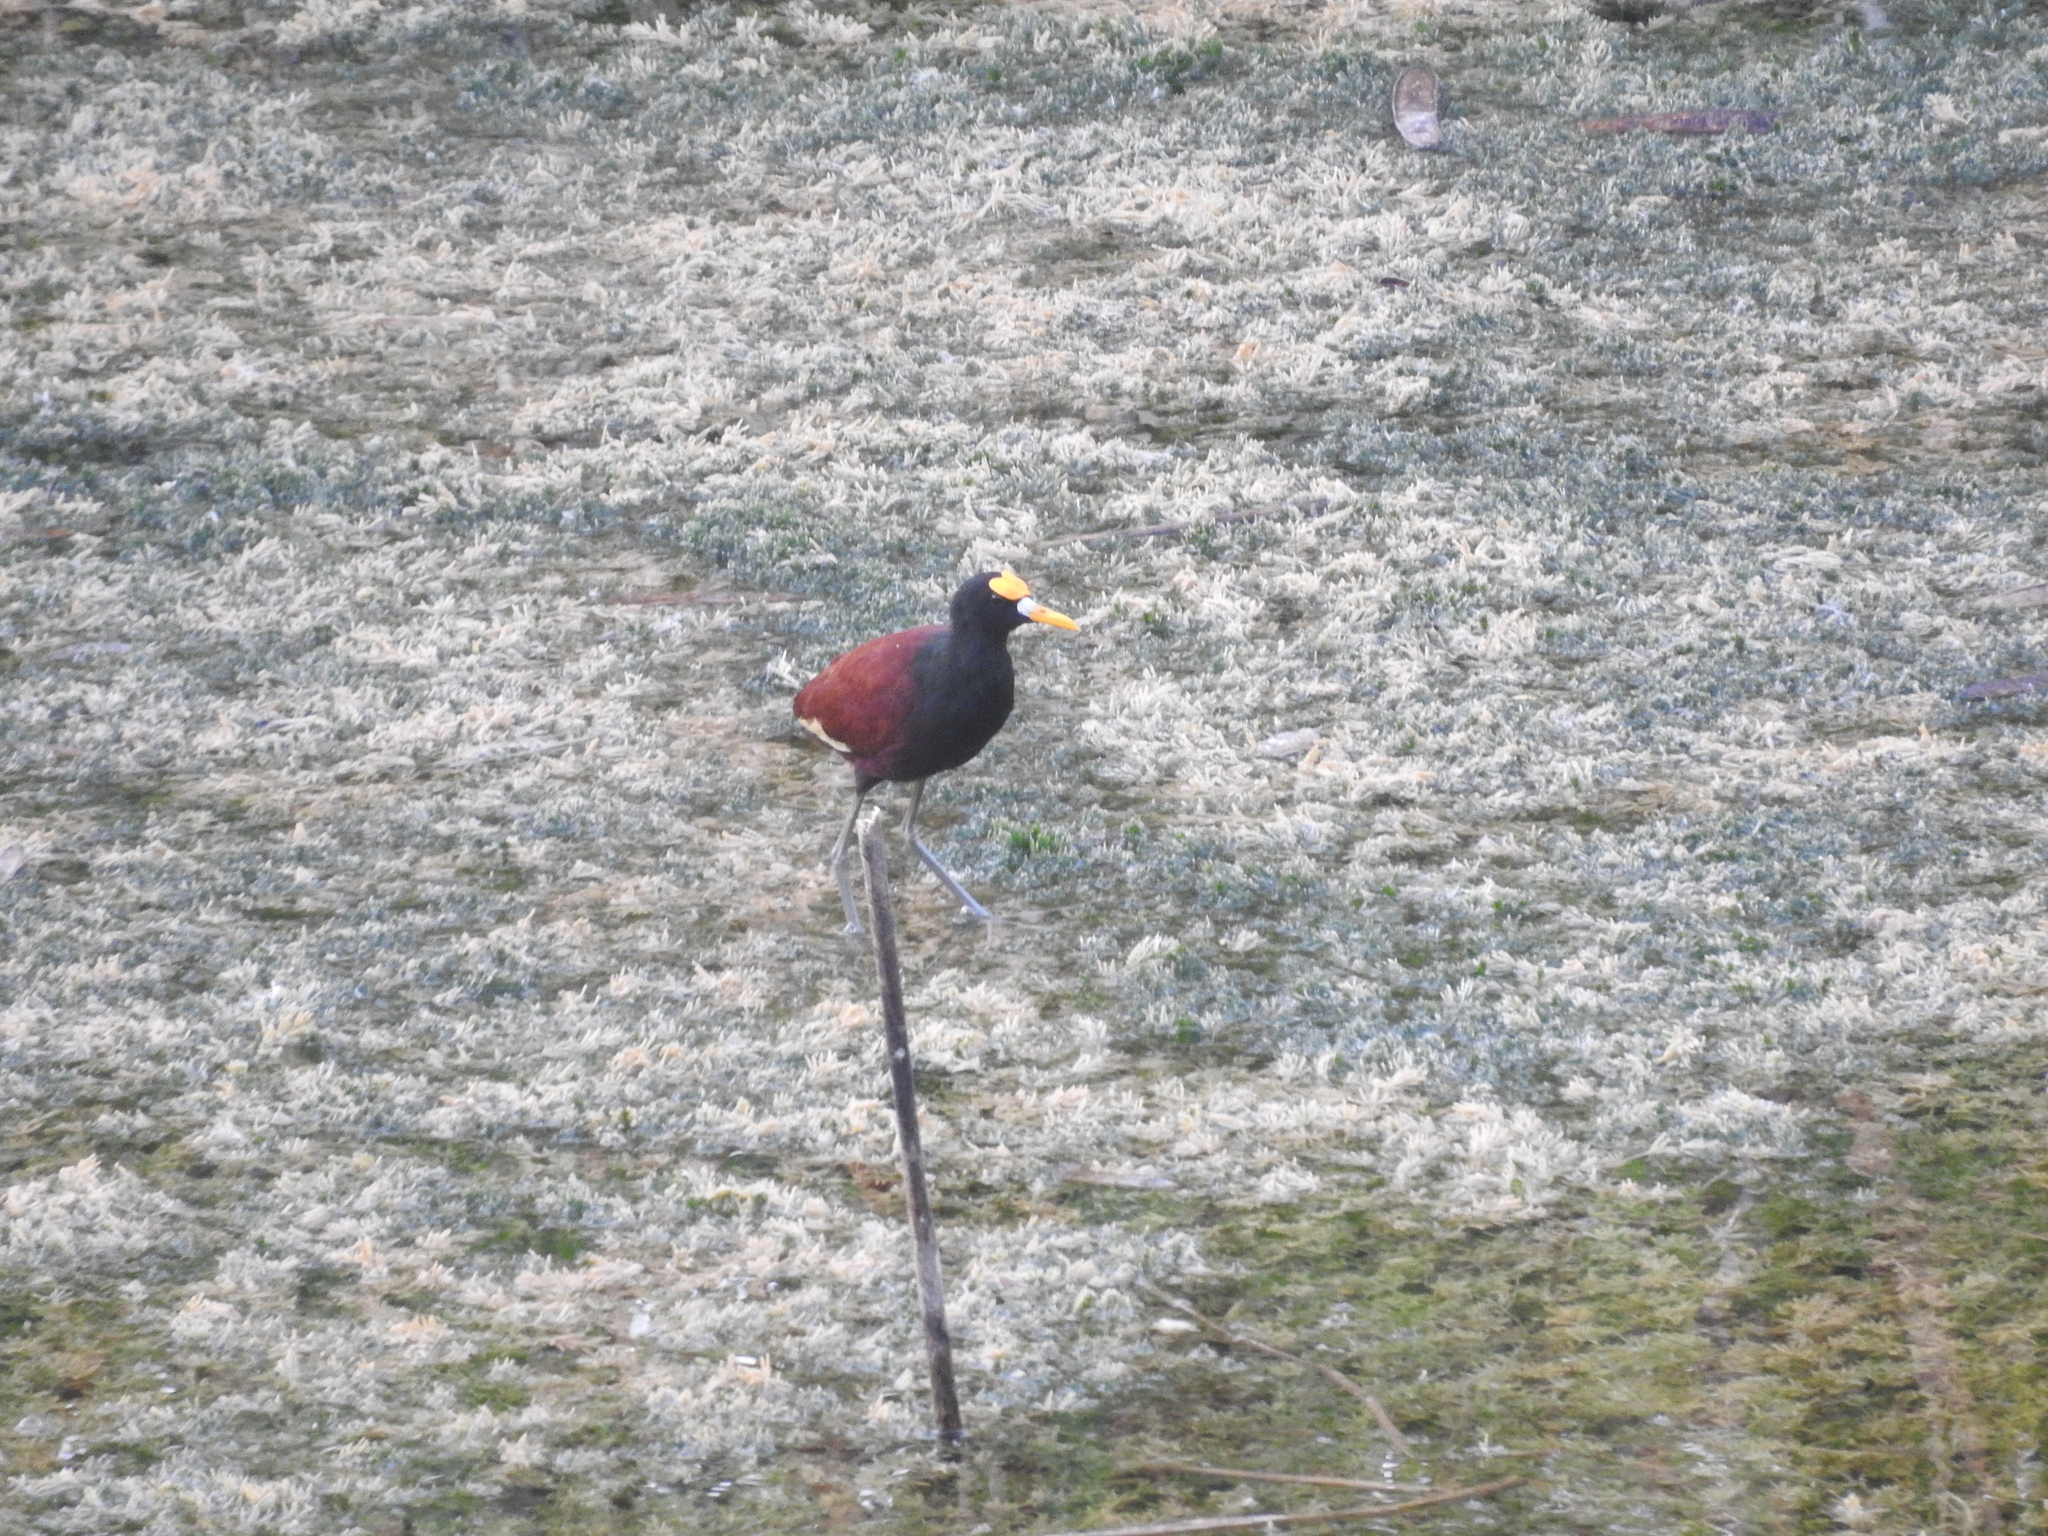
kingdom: Animalia
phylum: Chordata
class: Aves
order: Charadriiformes
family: Jacanidae
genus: Jacana
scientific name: Jacana spinosa
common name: Northern jacana
